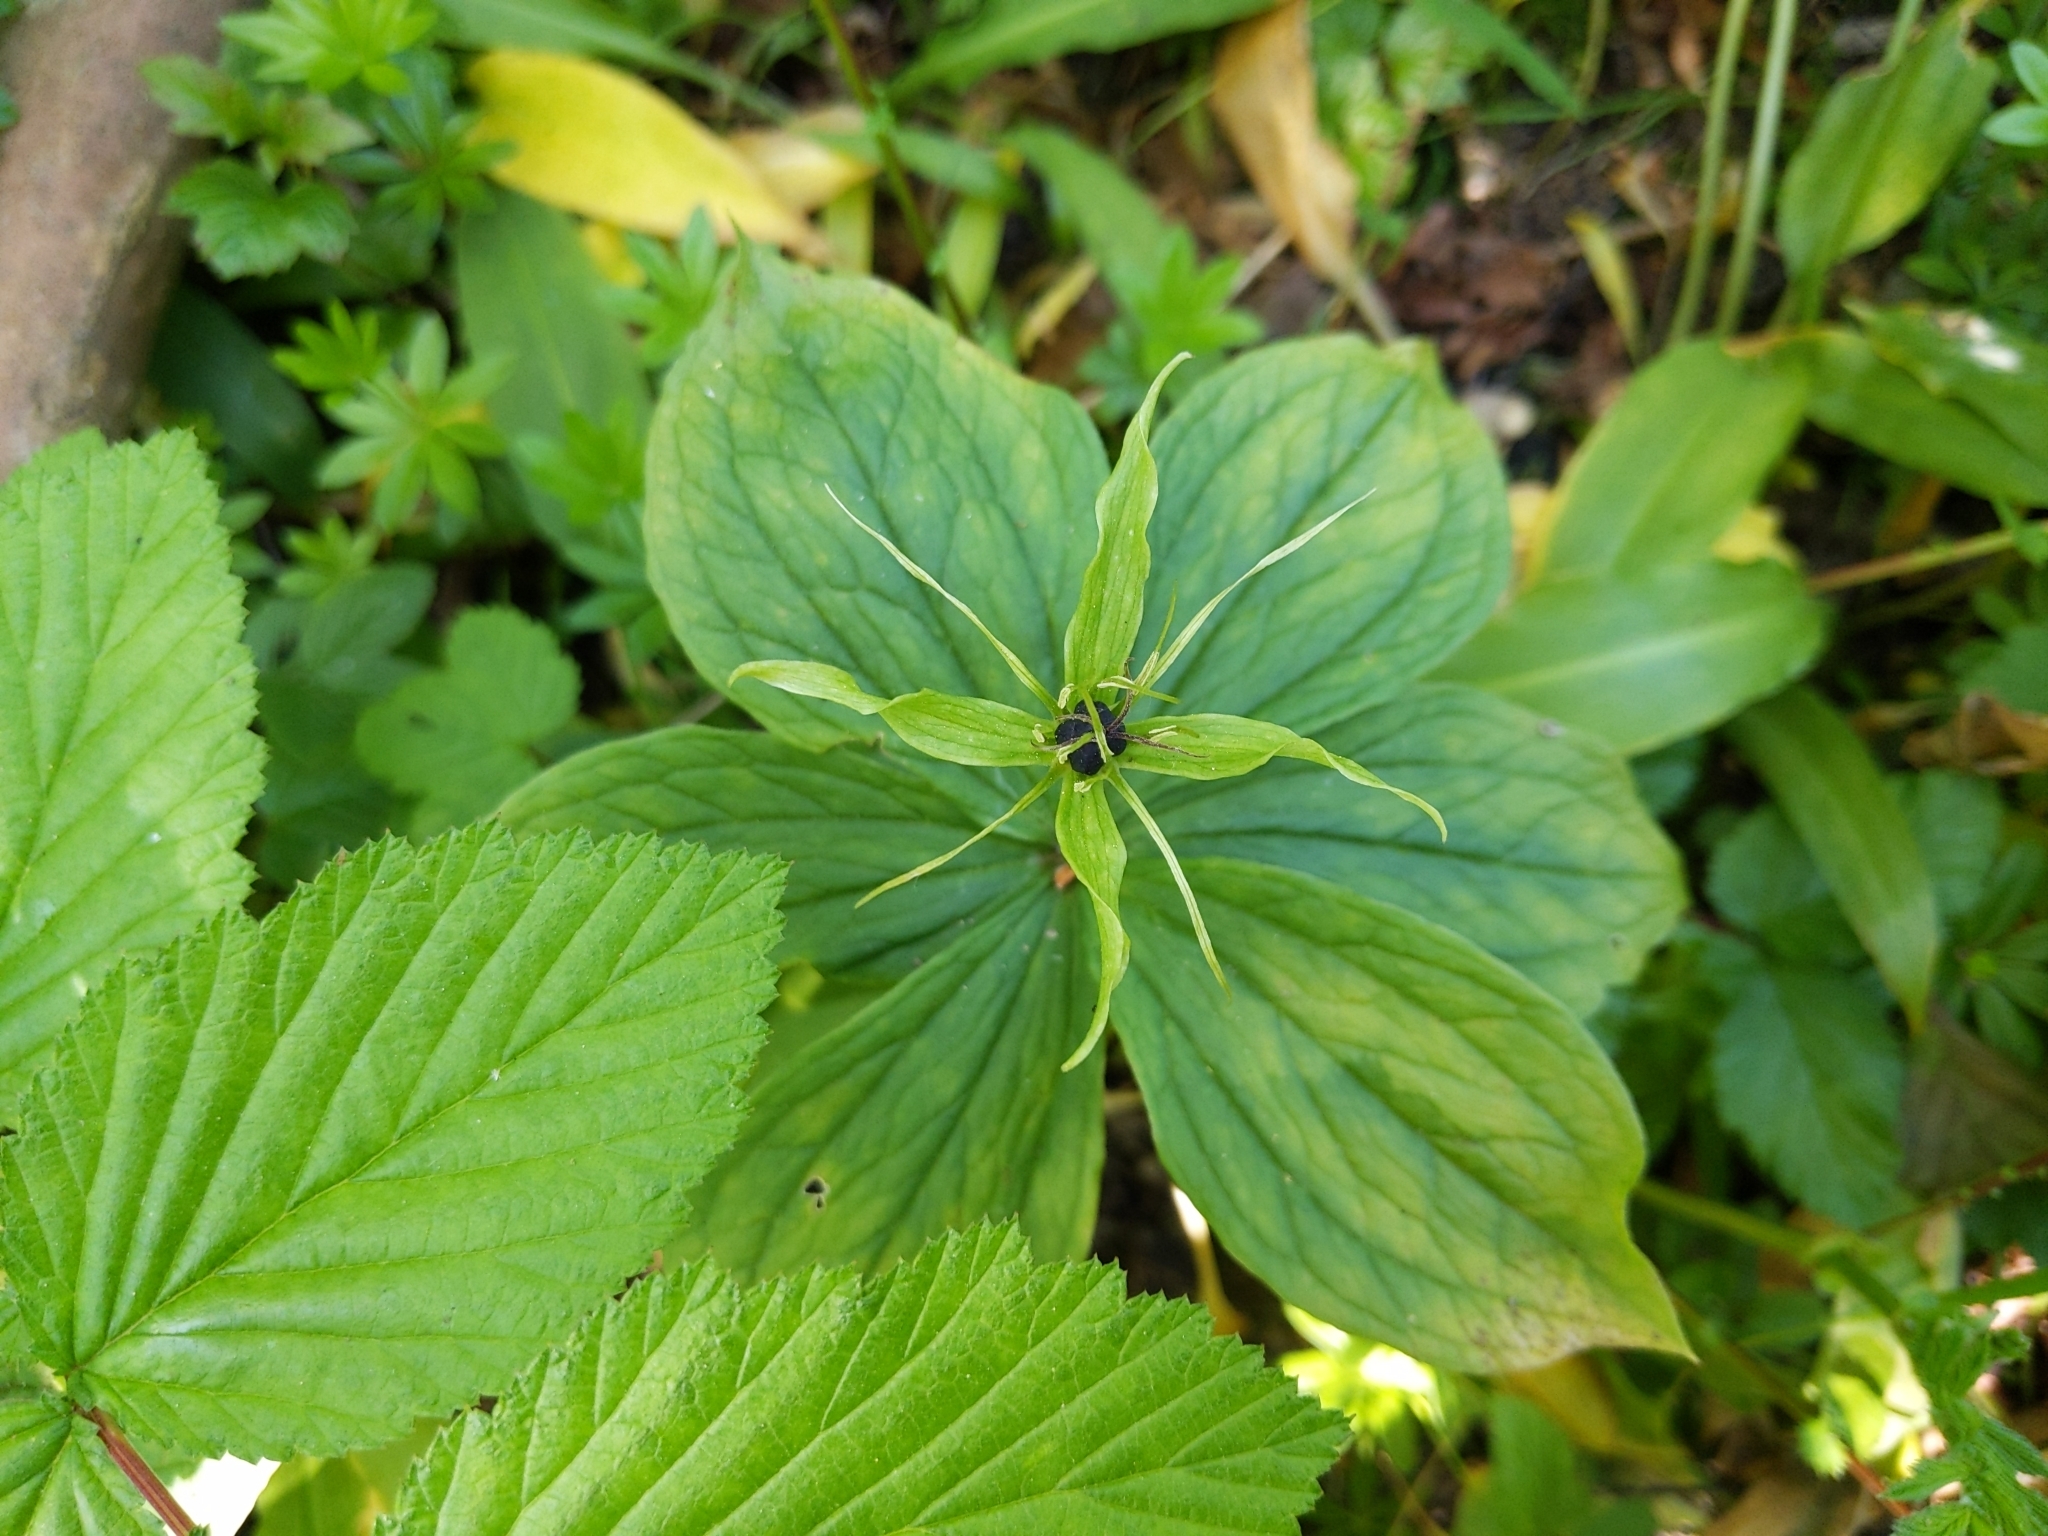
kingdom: Plantae
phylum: Tracheophyta
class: Liliopsida
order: Liliales
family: Melanthiaceae
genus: Paris
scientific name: Paris quadrifolia
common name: Herb-paris
